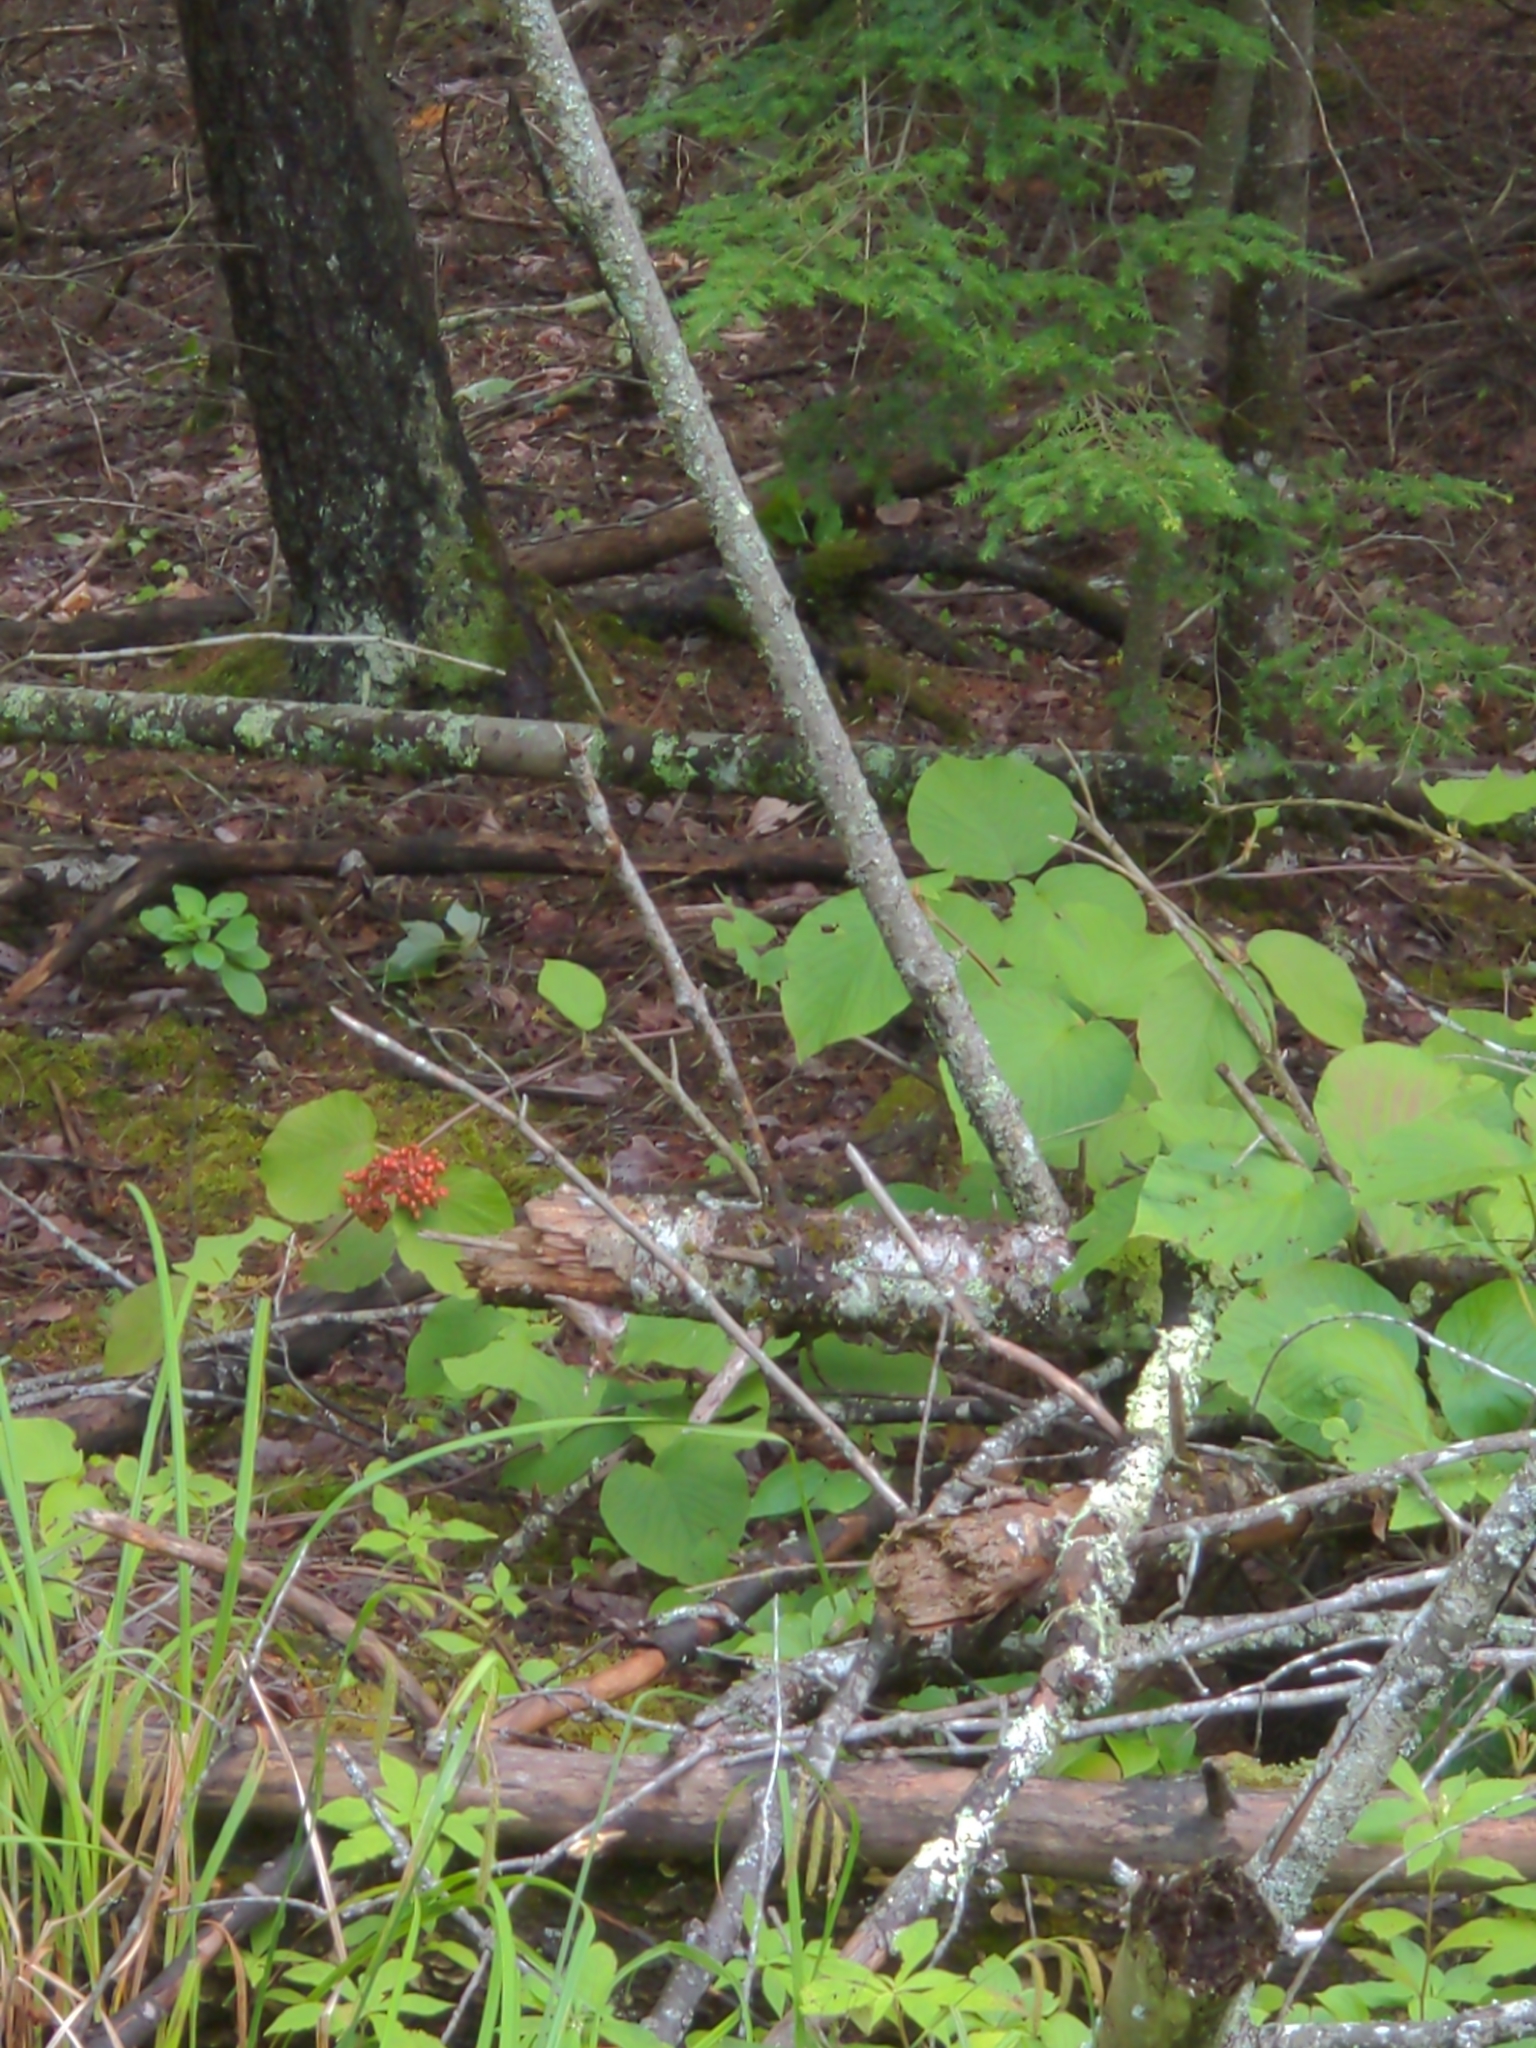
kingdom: Plantae
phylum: Tracheophyta
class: Magnoliopsida
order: Dipsacales
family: Viburnaceae
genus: Viburnum
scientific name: Viburnum lantanoides
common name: Hobblebush
